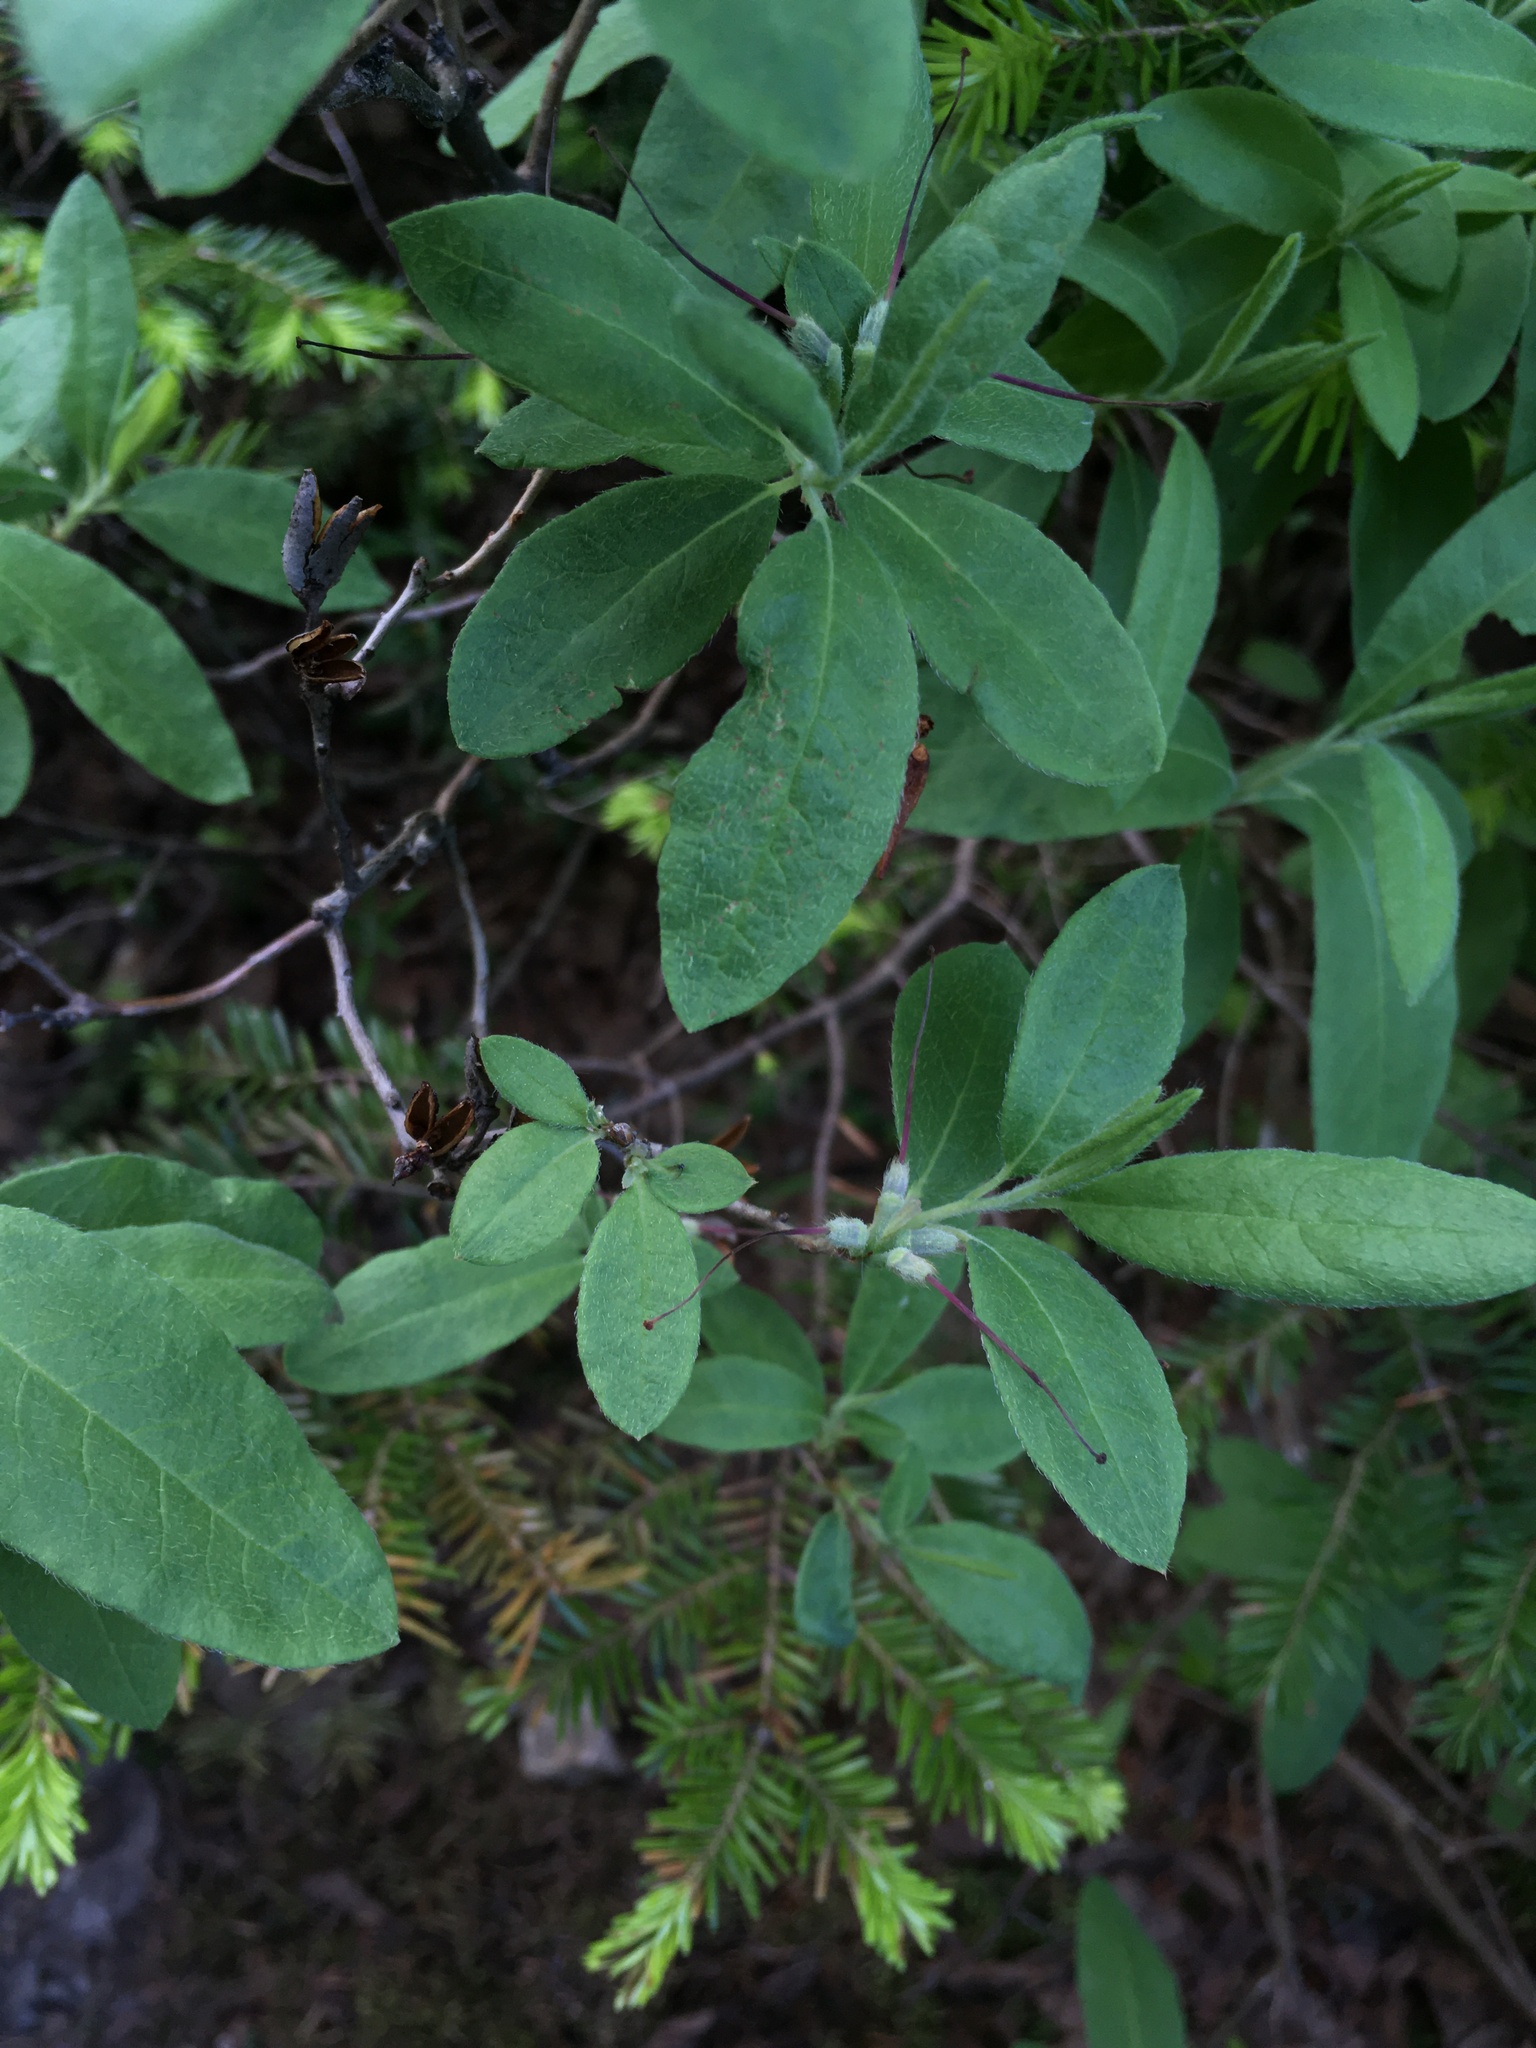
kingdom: Plantae
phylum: Tracheophyta
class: Magnoliopsida
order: Ericales
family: Ericaceae
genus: Rhododendron
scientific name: Rhododendron canadense
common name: Rhodora
